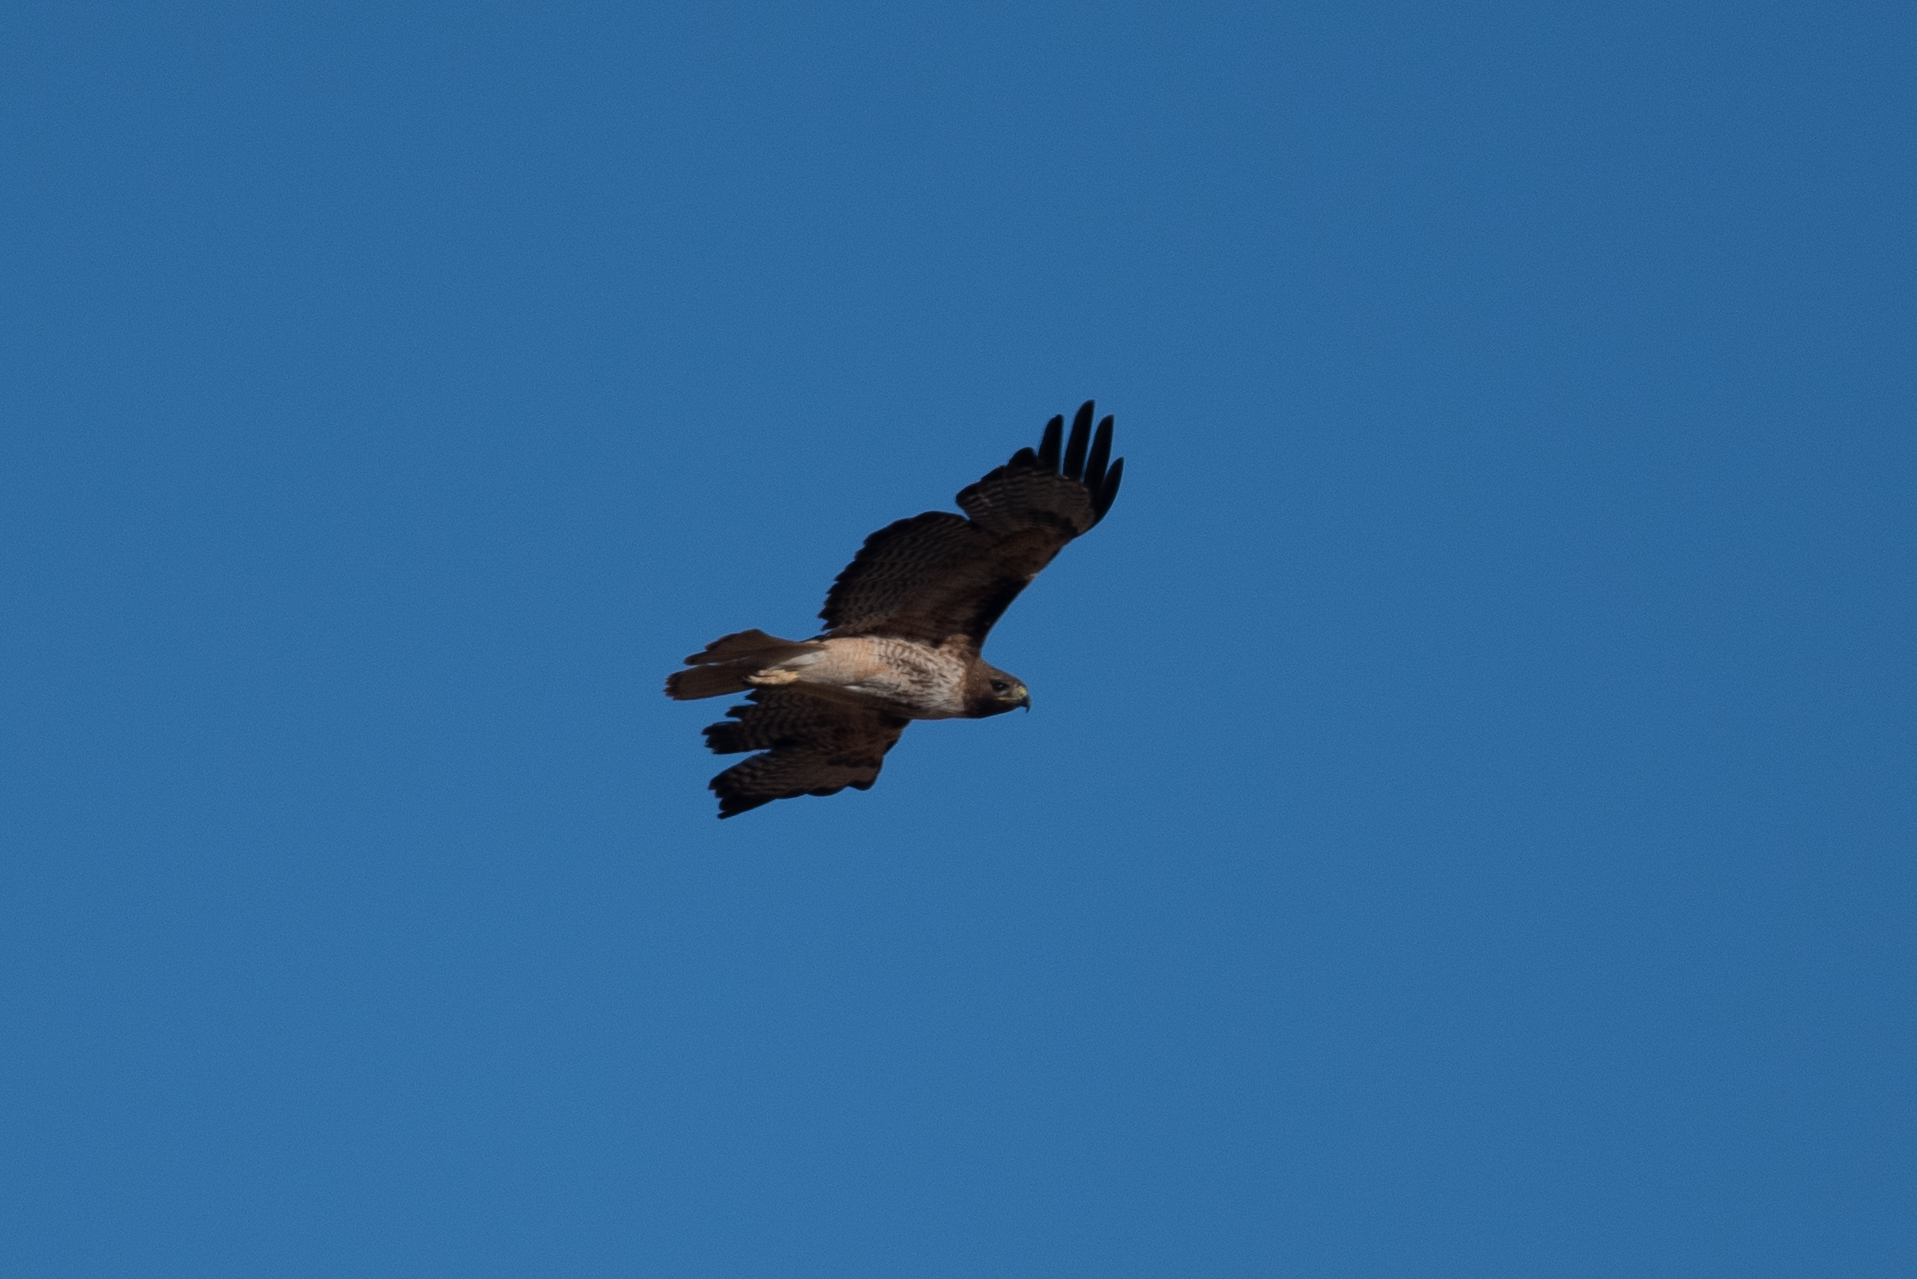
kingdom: Animalia
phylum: Chordata
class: Aves
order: Accipitriformes
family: Accipitridae
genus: Buteo
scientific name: Buteo jamaicensis
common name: Red-tailed hawk
